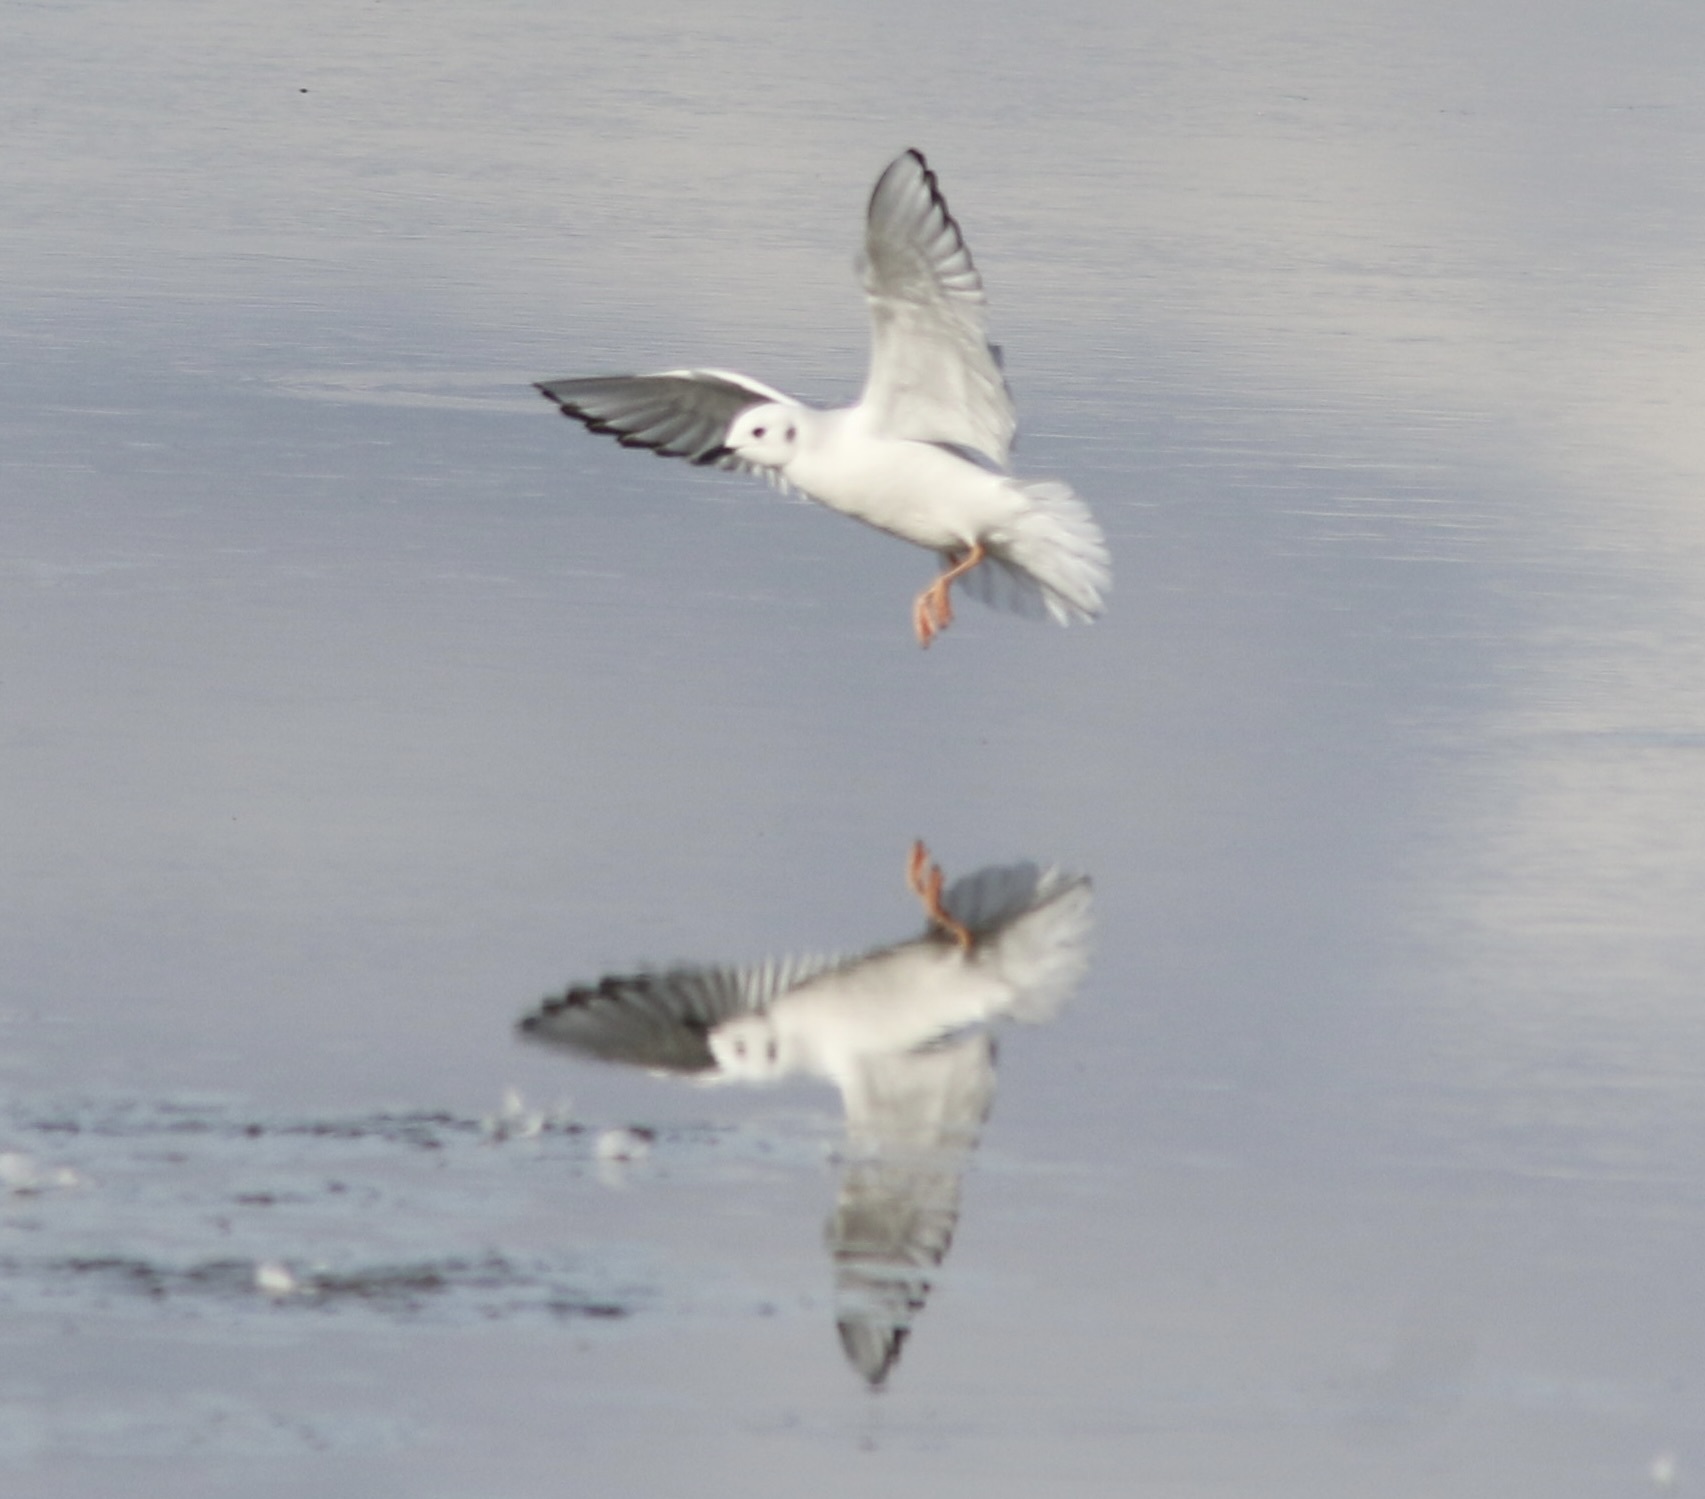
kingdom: Animalia
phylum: Chordata
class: Aves
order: Charadriiformes
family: Laridae
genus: Chroicocephalus
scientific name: Chroicocephalus philadelphia
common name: Bonaparte's gull
